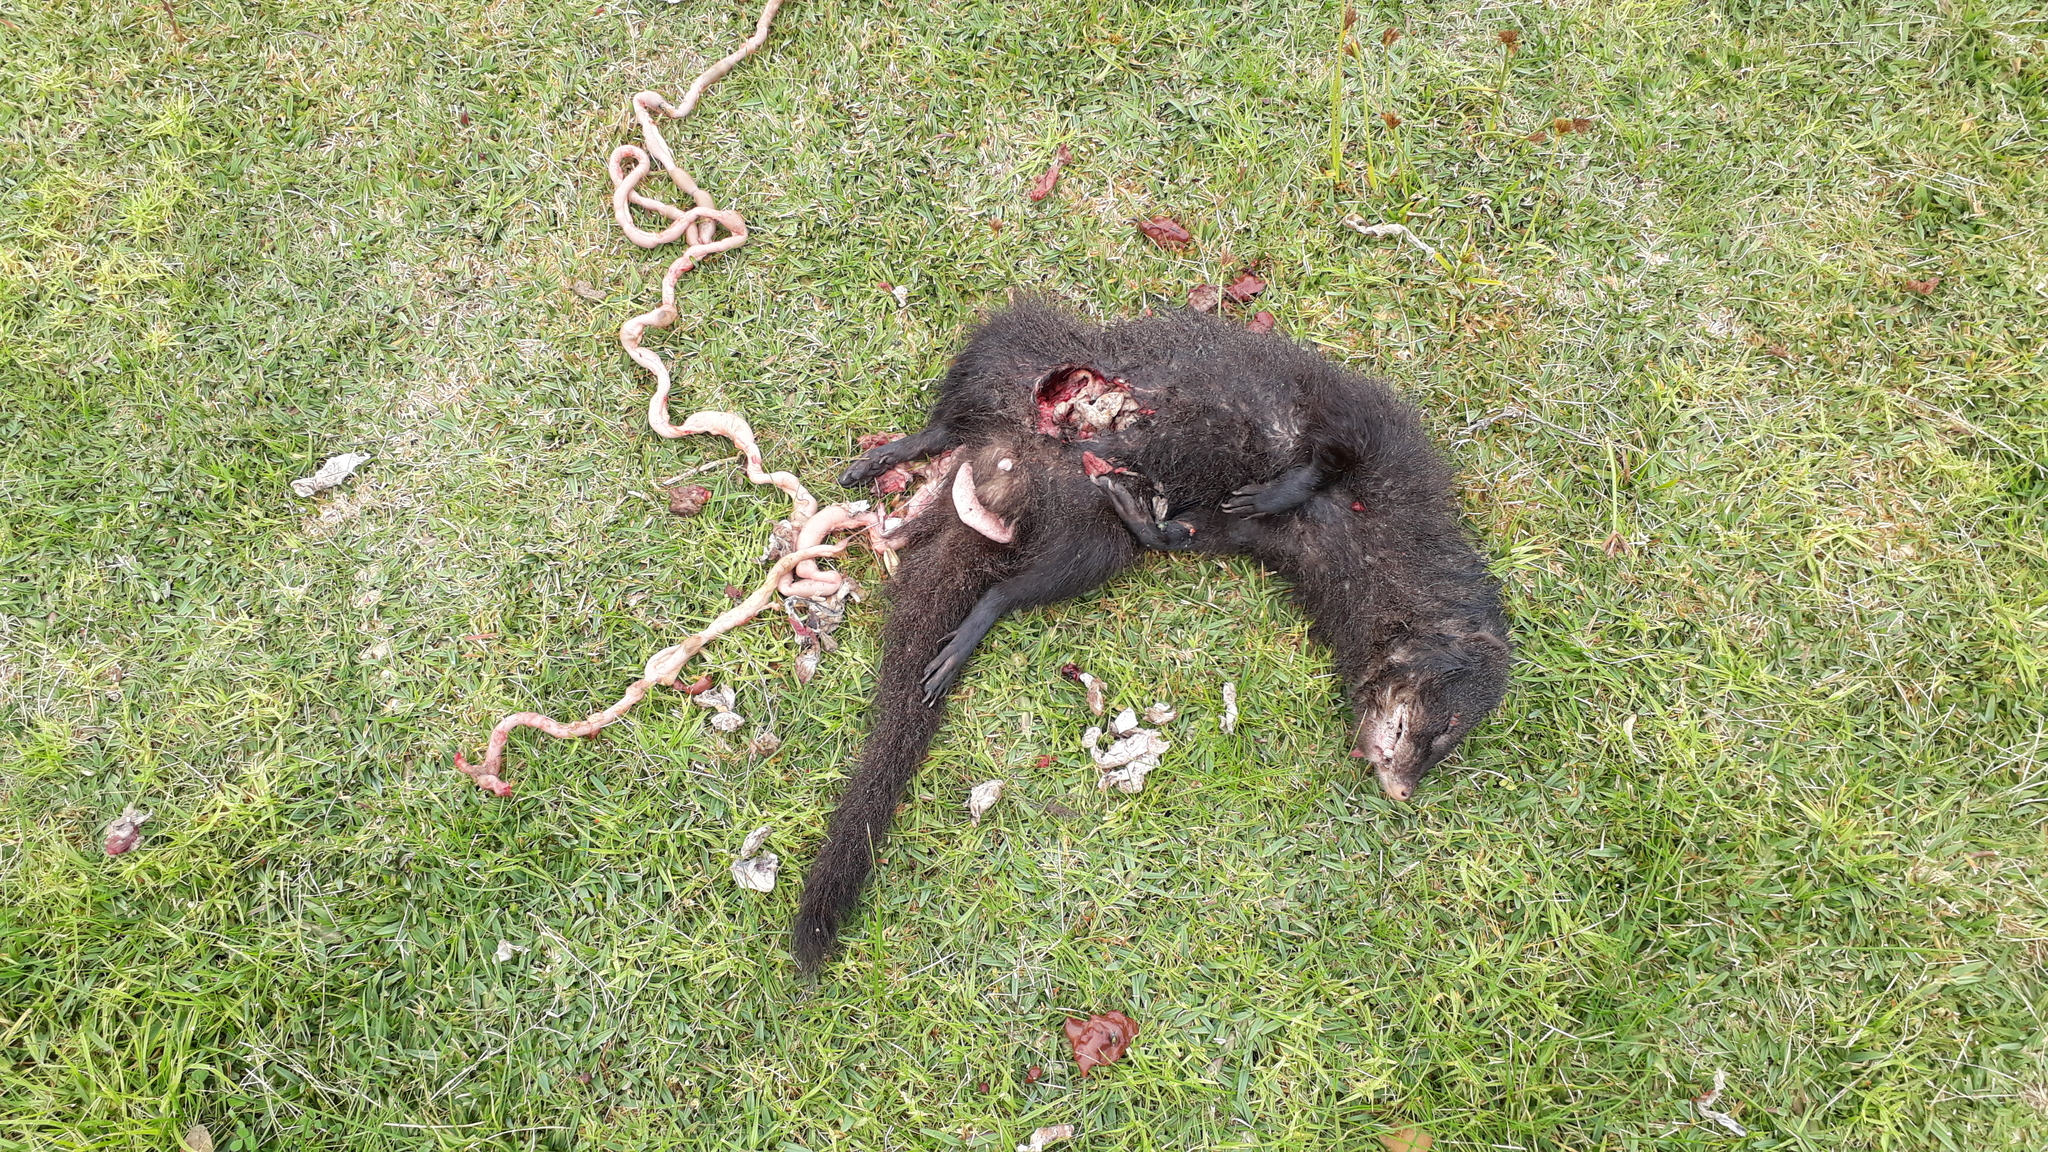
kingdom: Animalia
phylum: Chordata
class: Mammalia
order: Carnivora
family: Herpestidae
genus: Galerella
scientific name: Galerella pulverulenta
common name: Cape gray mongoose
